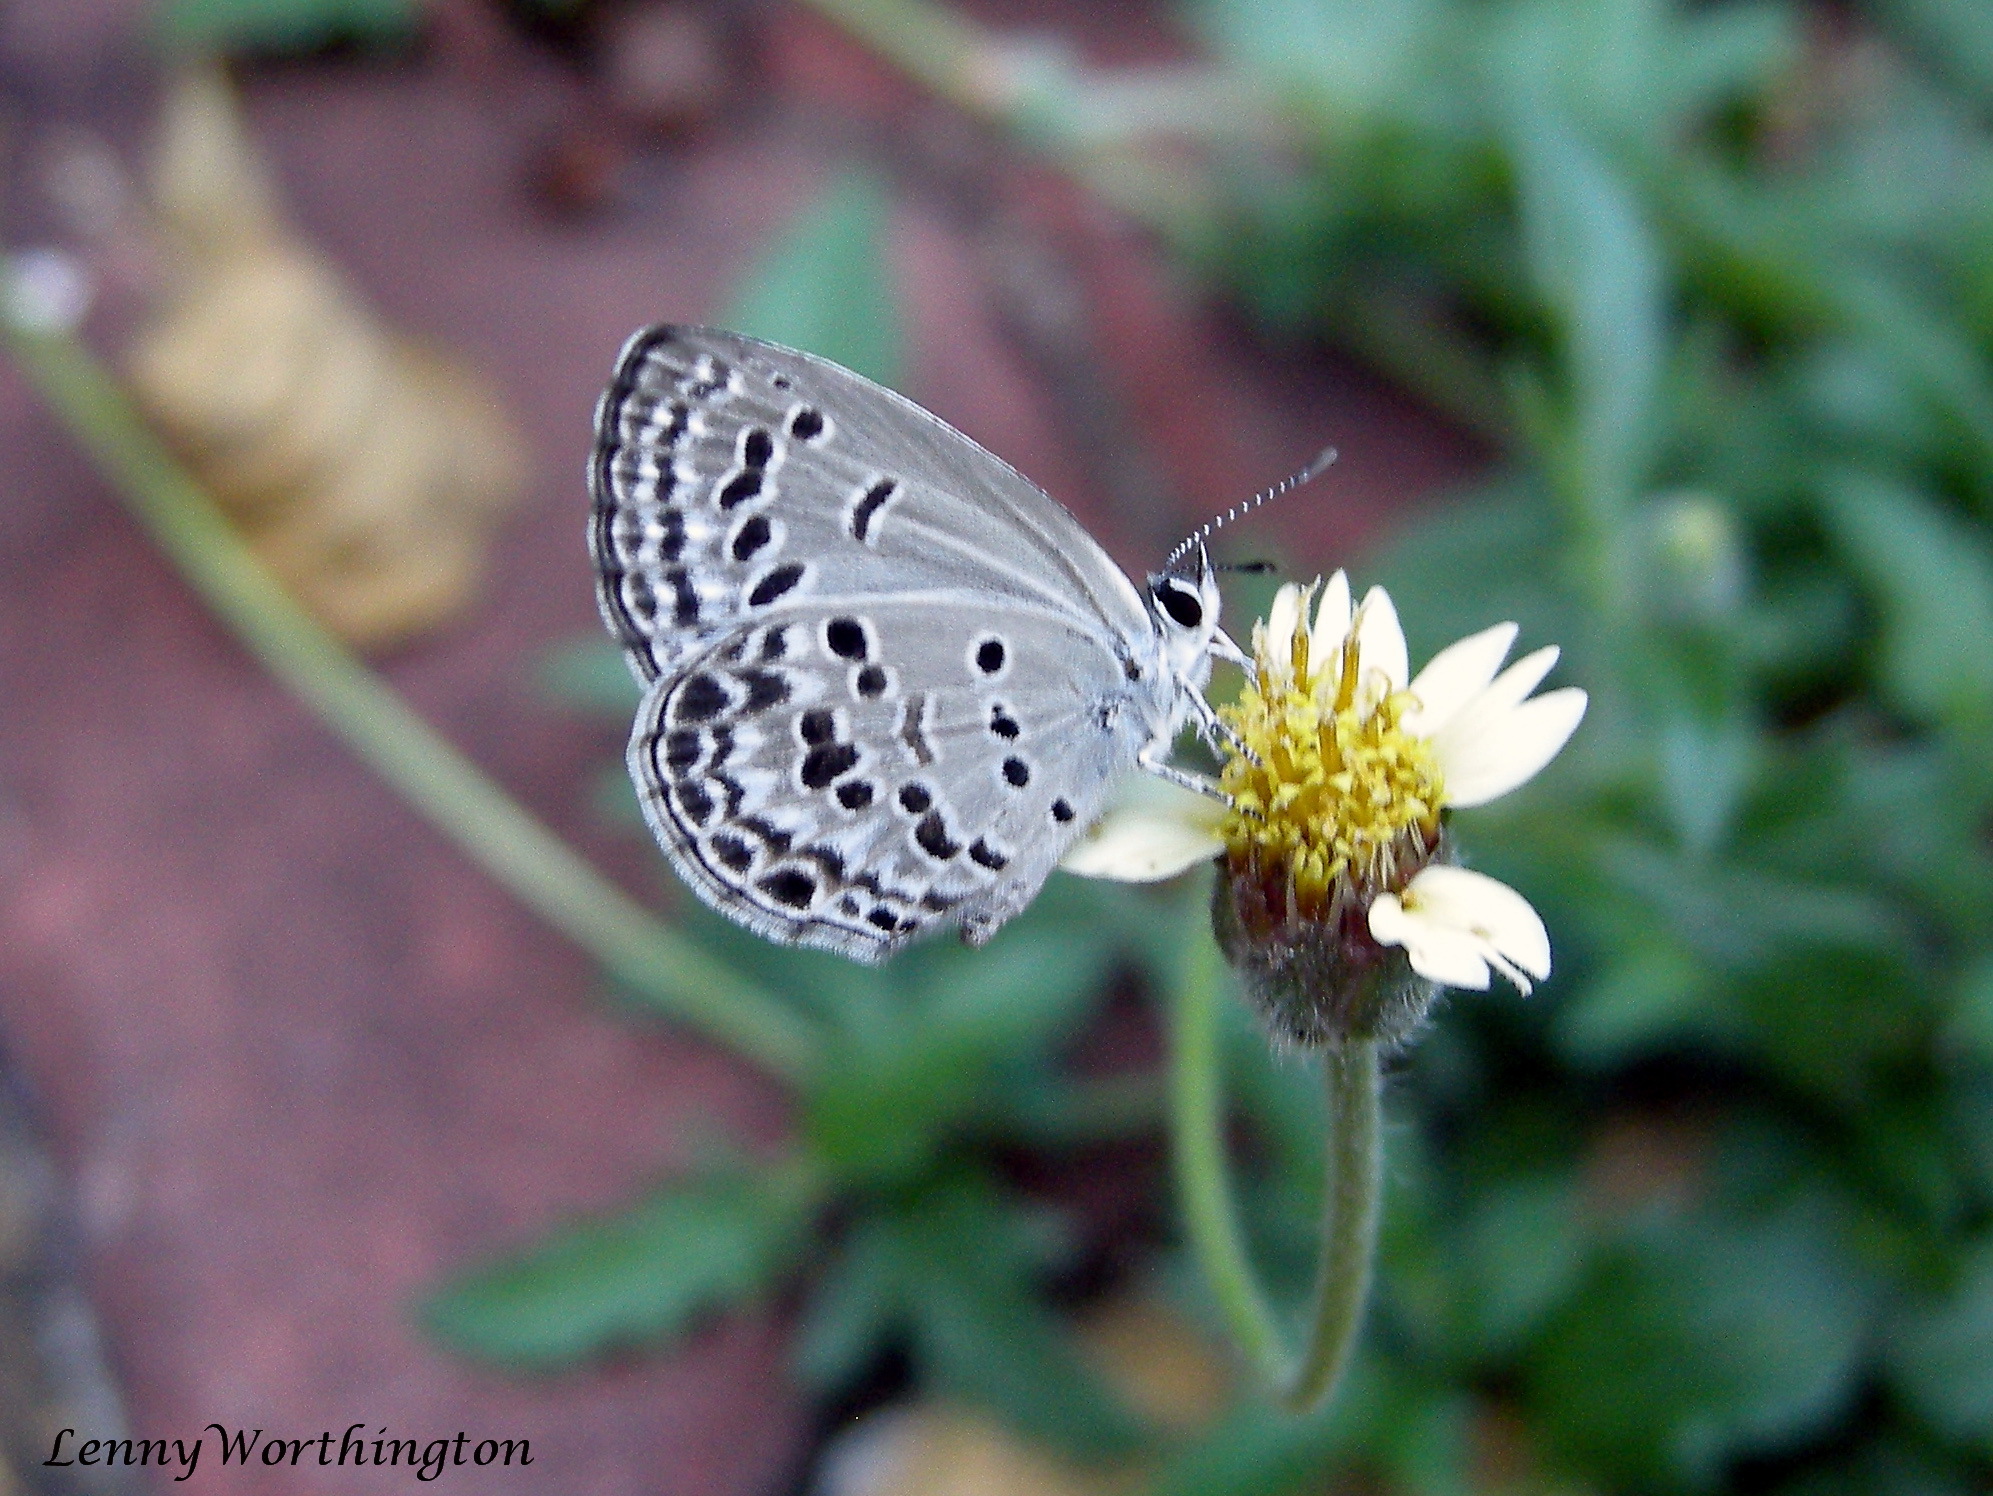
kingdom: Animalia
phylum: Arthropoda
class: Insecta
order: Lepidoptera
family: Lycaenidae
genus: Chilades
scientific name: Chilades laius
